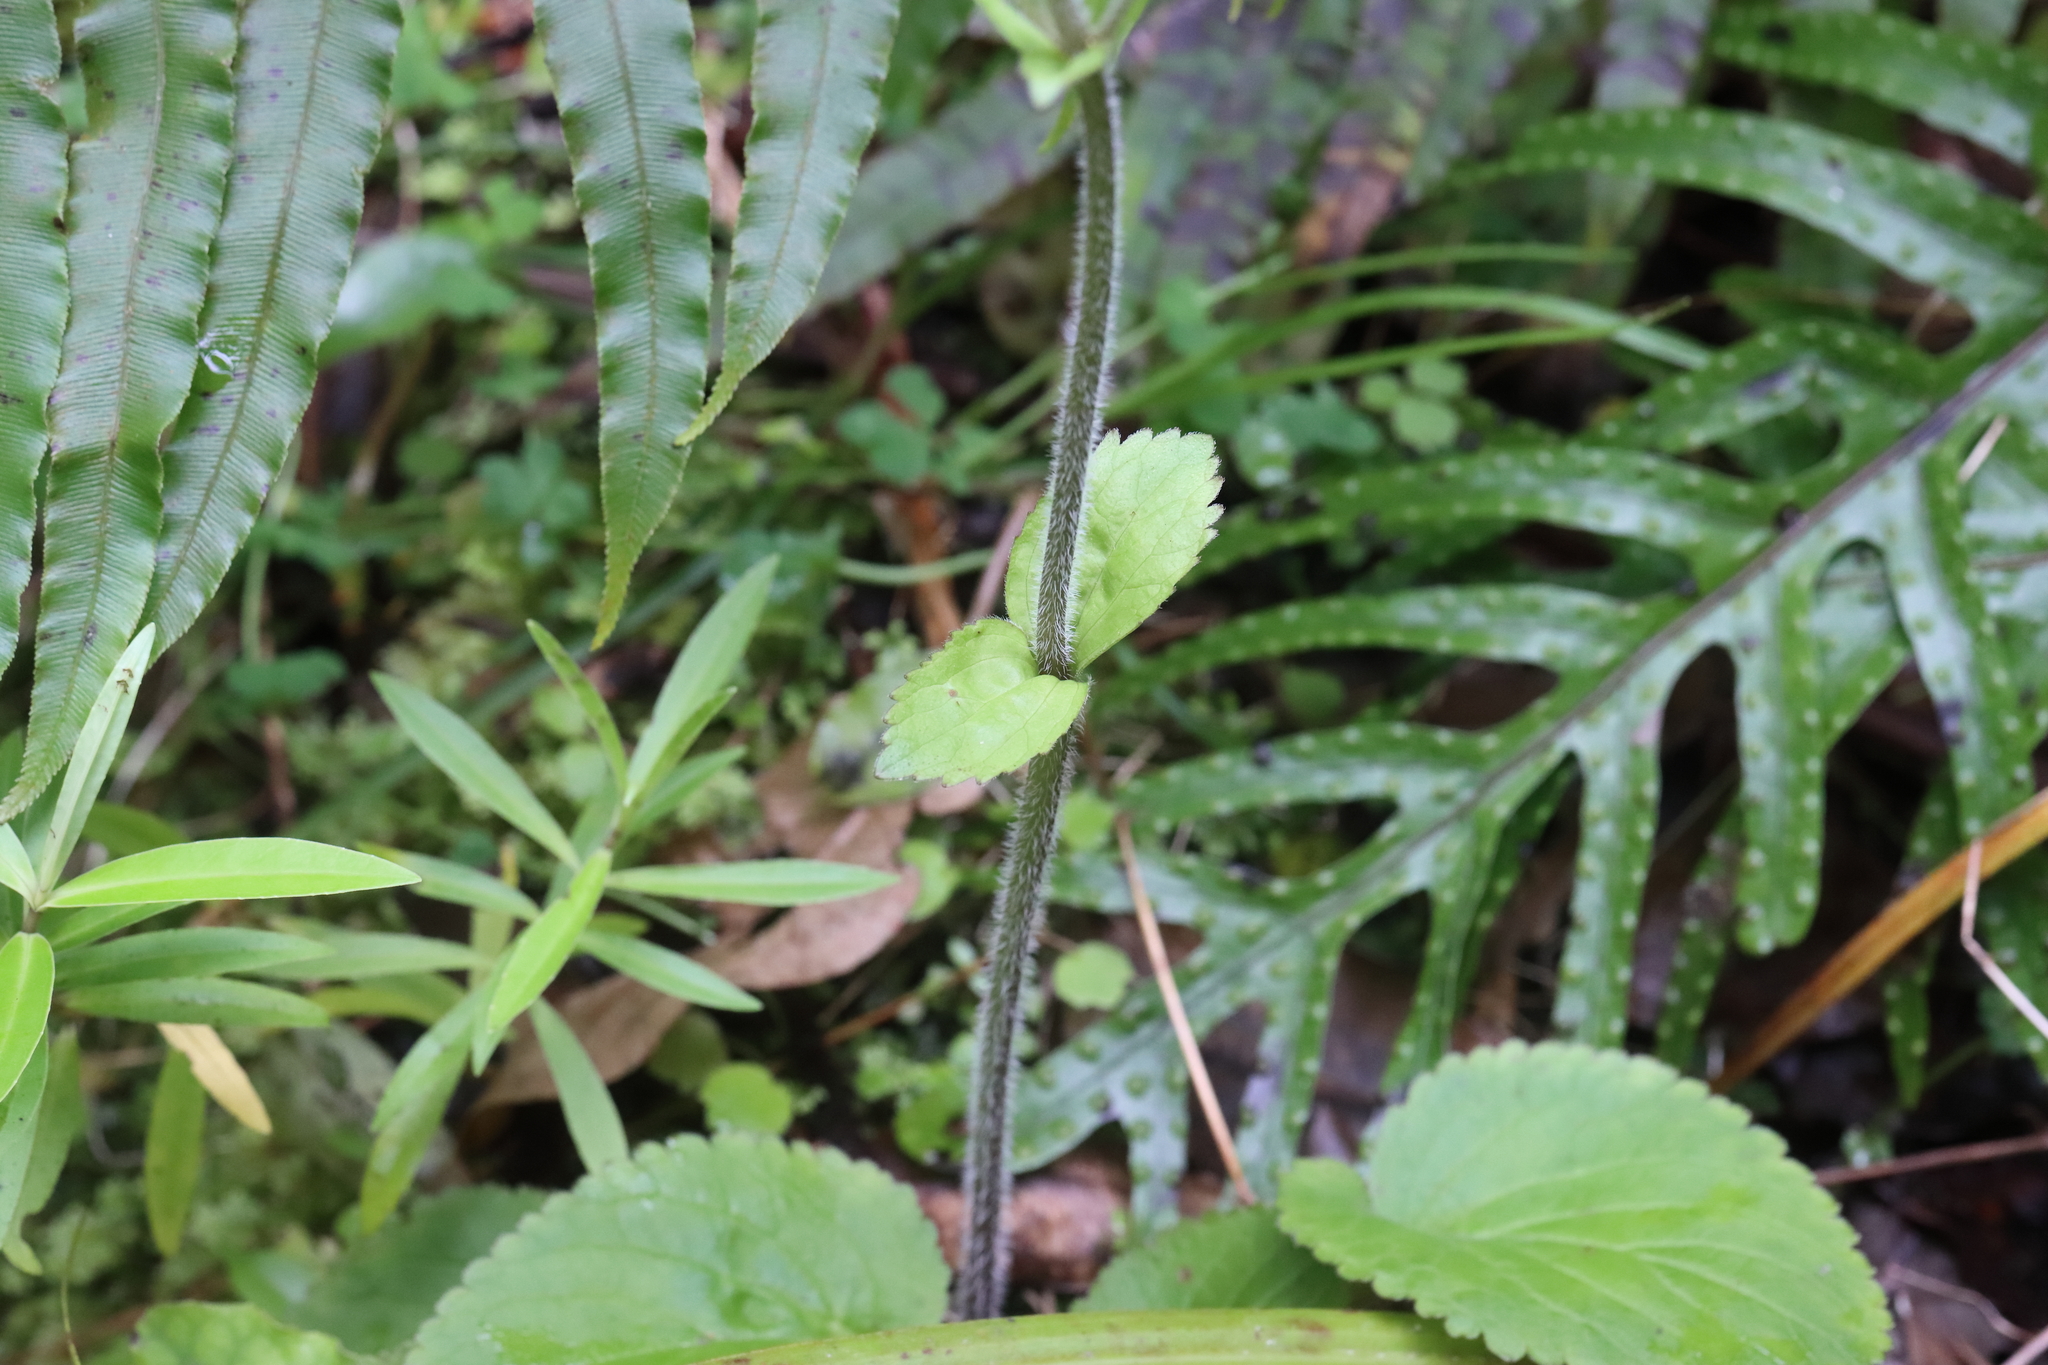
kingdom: Plantae
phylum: Tracheophyta
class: Magnoliopsida
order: Lamiales
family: Plantaginaceae
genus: Ourisia
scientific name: Ourisia macrophylla
